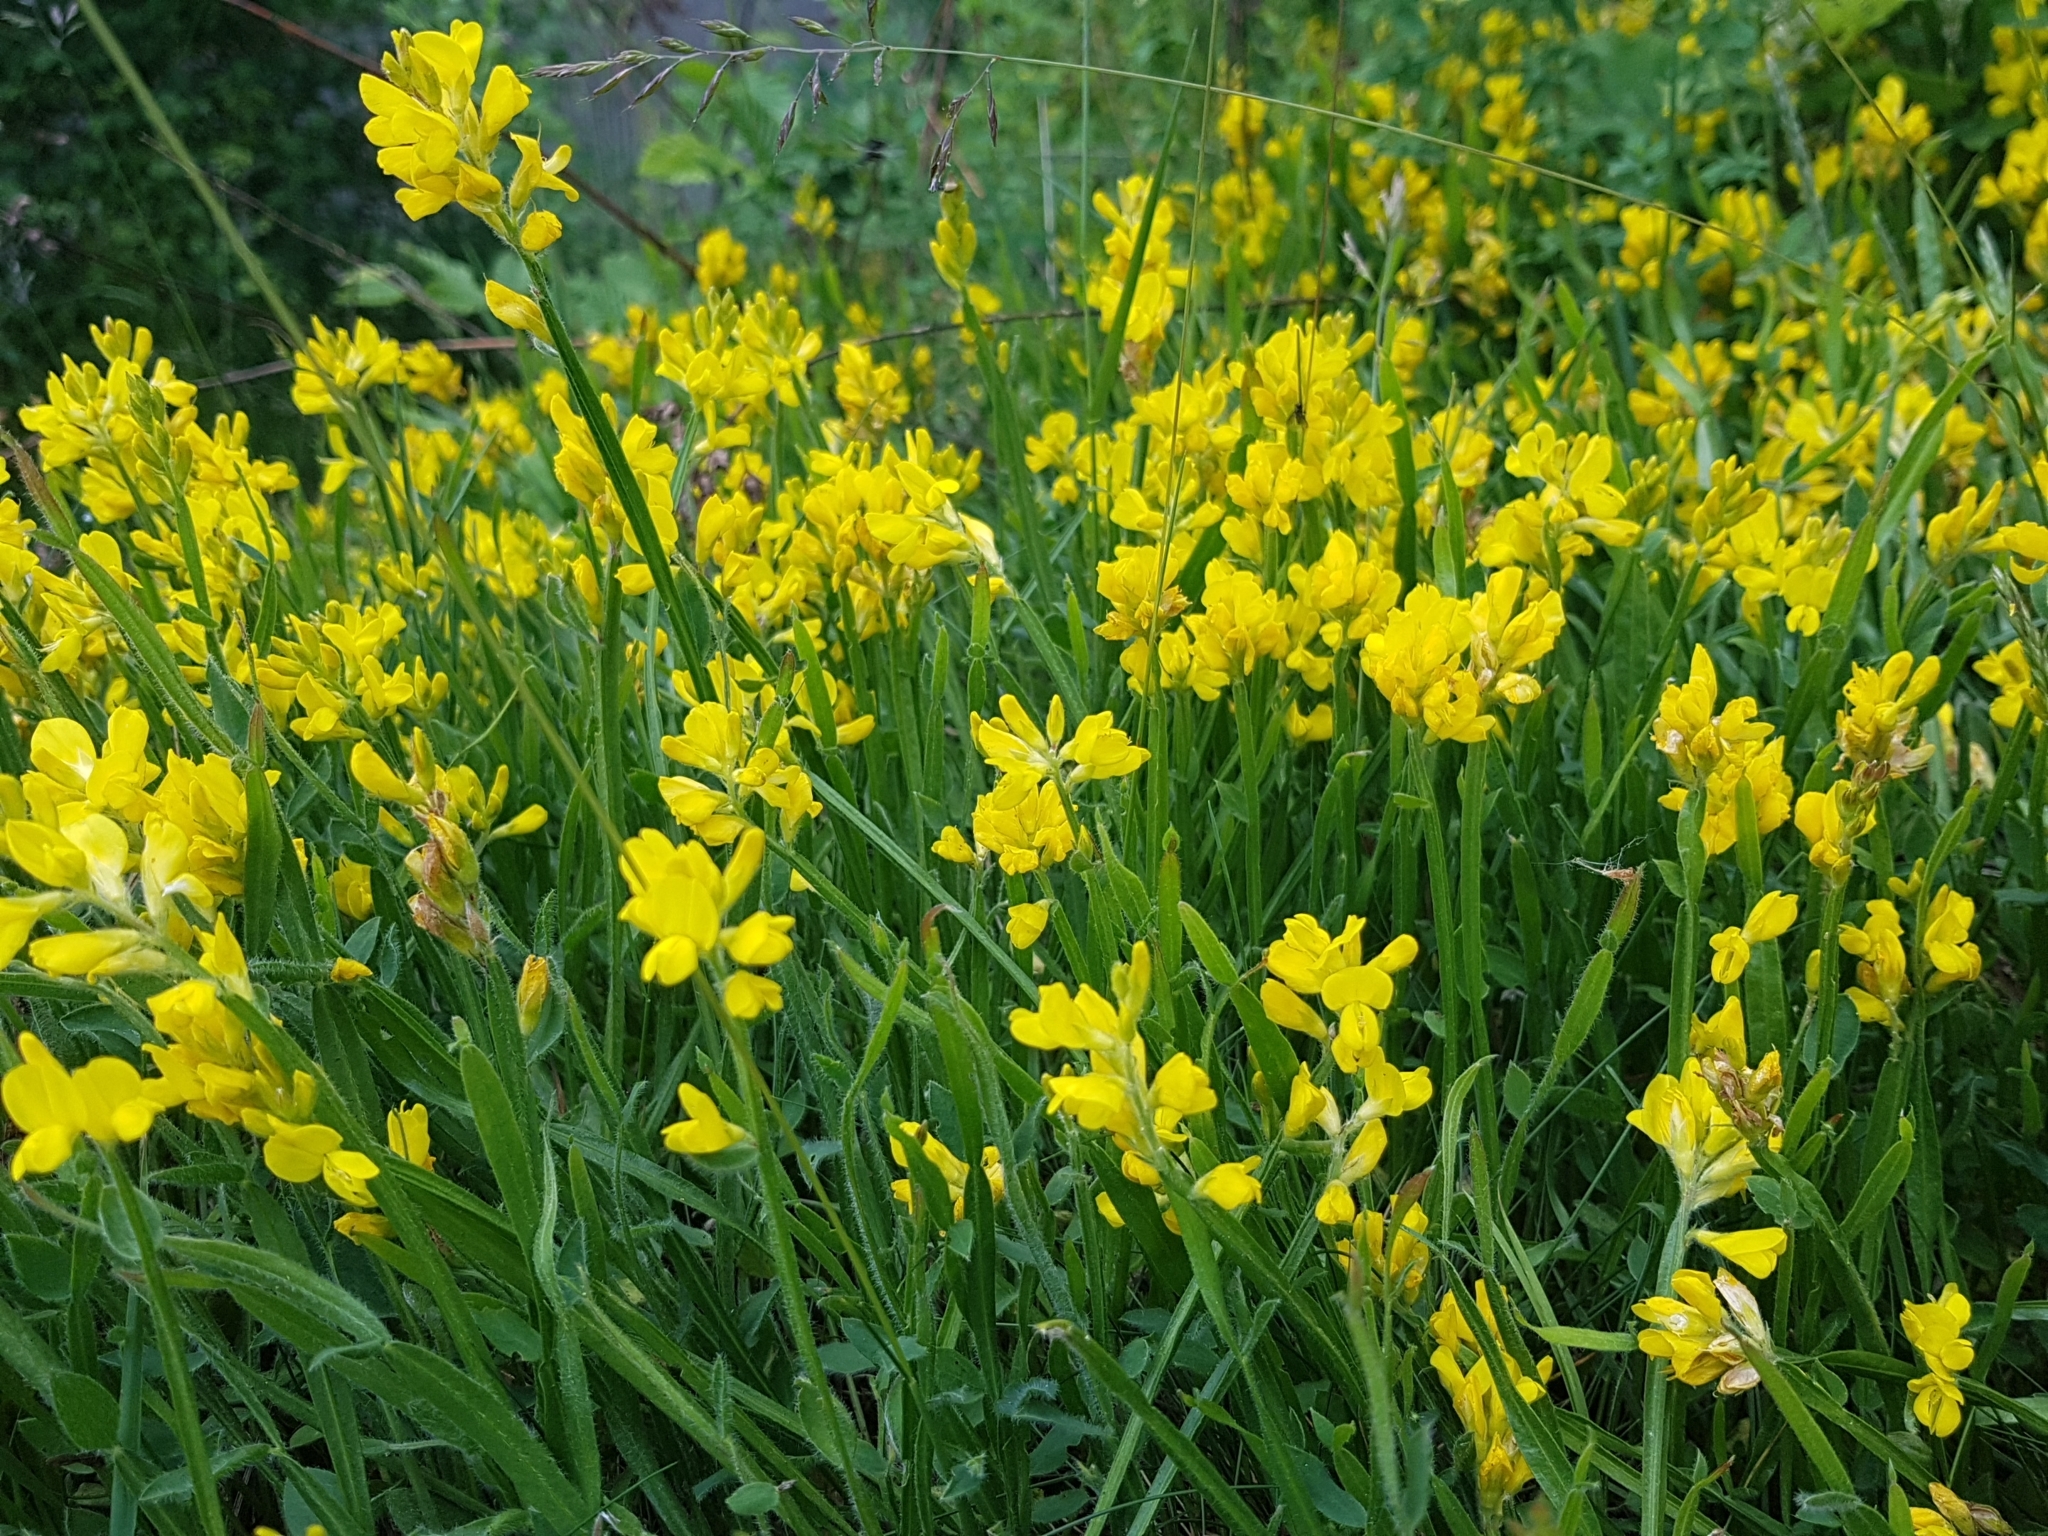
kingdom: Plantae
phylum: Tracheophyta
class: Magnoliopsida
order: Fabales
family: Fabaceae
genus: Genista
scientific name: Genista sagittalis
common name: Winged greenweed
